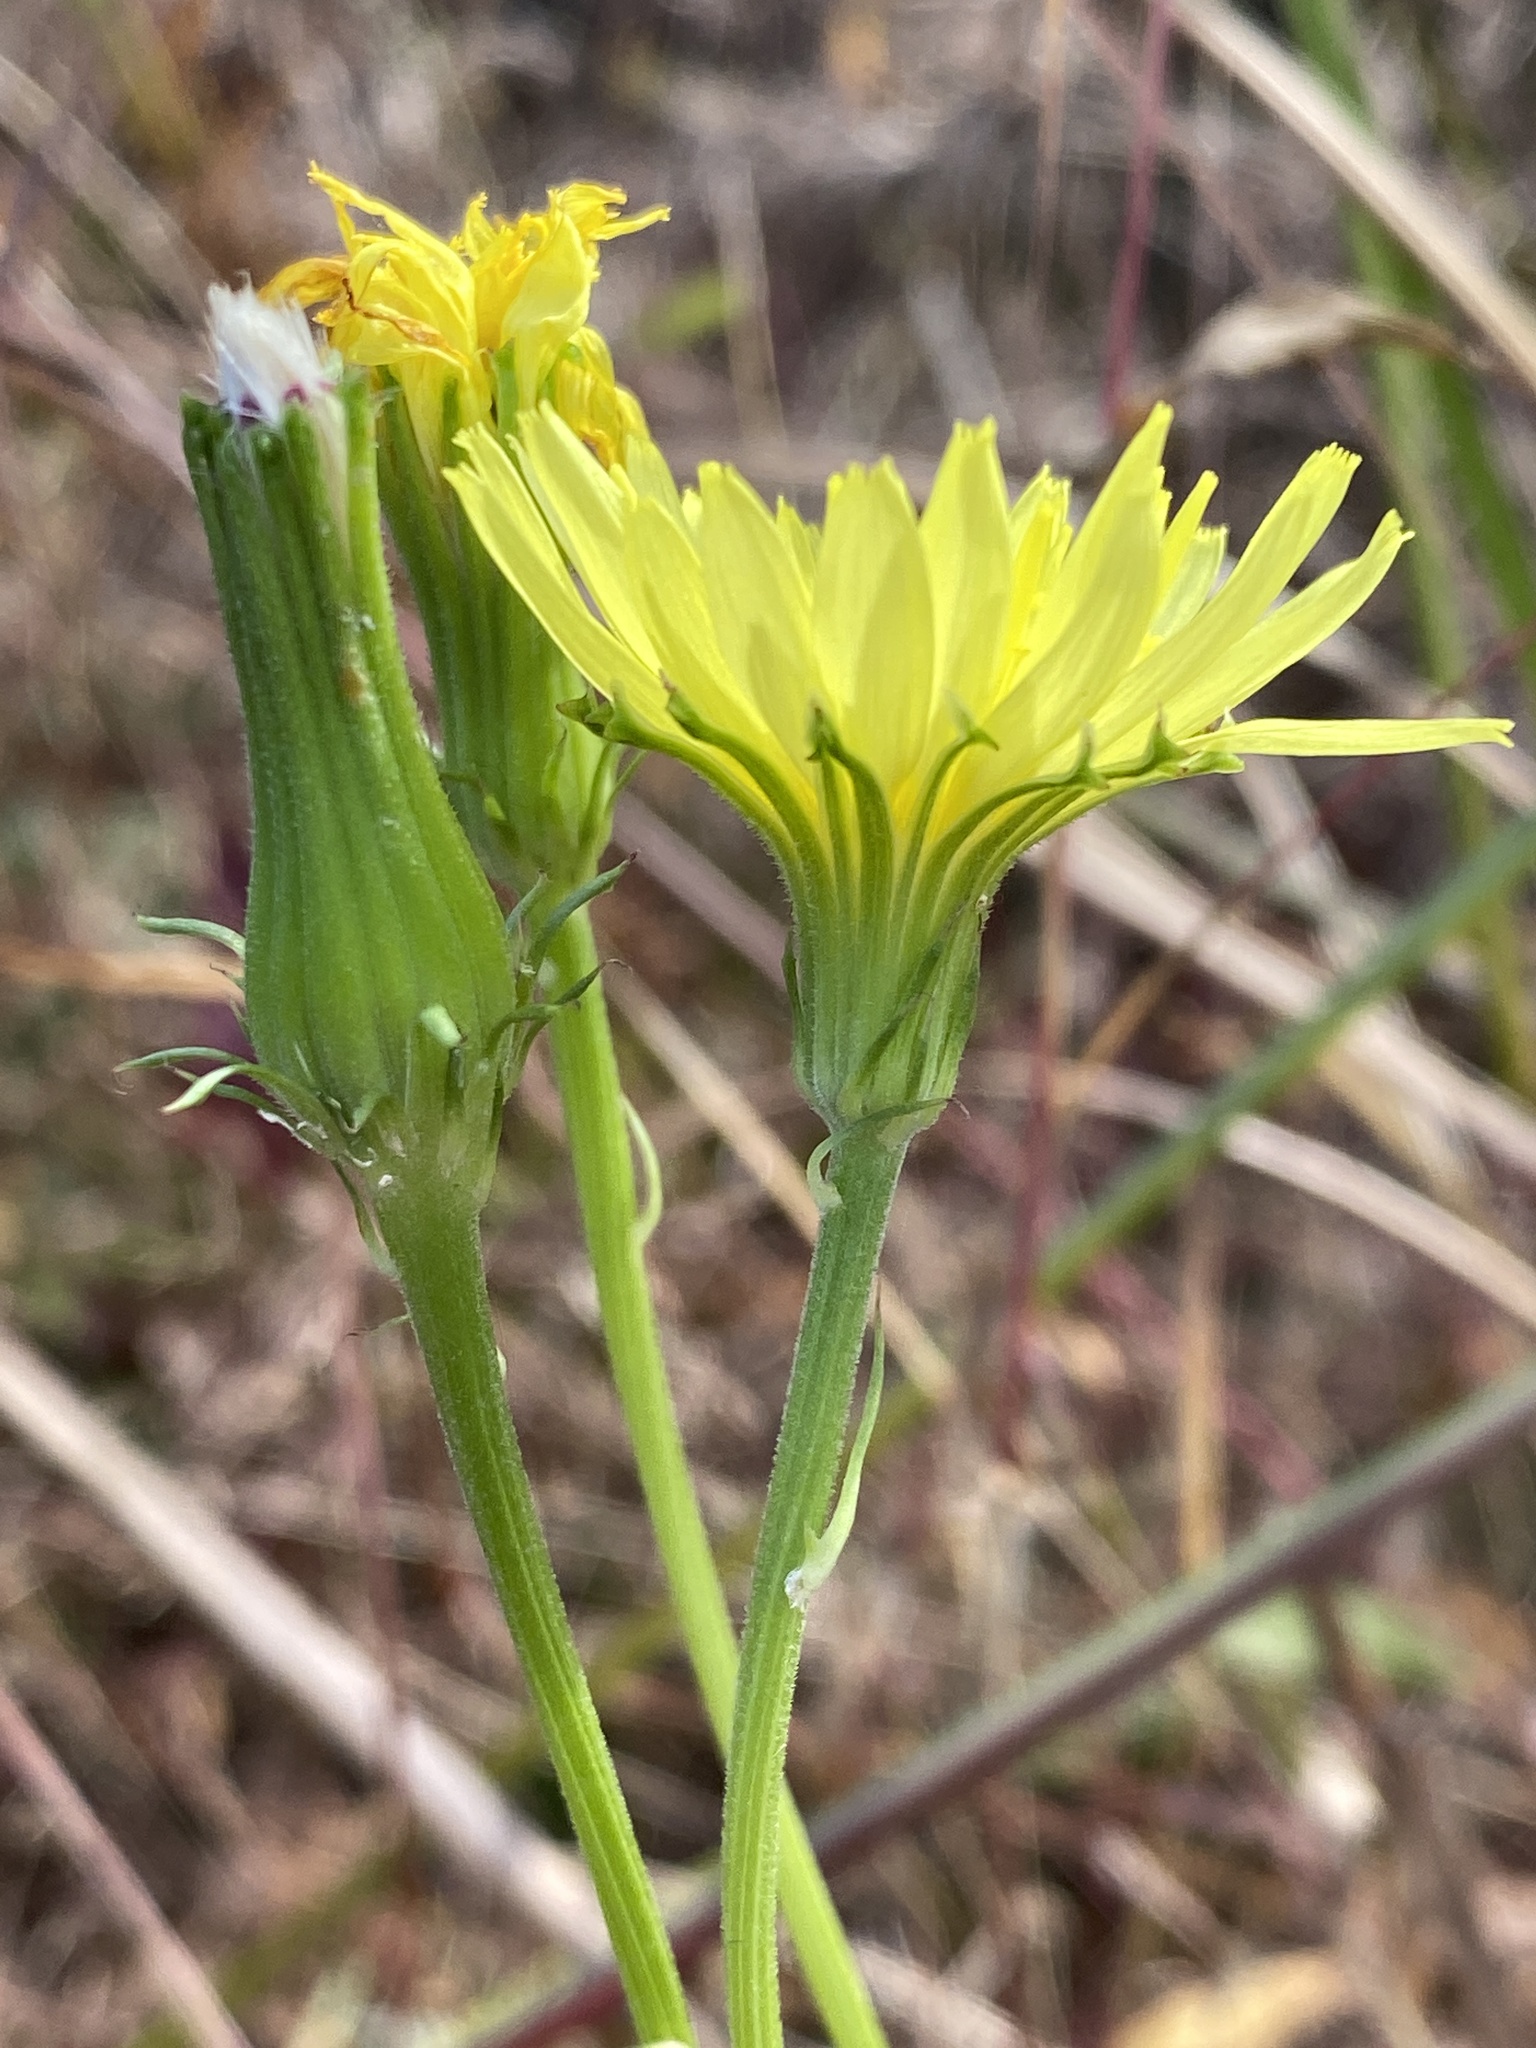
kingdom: Plantae
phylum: Tracheophyta
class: Magnoliopsida
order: Asterales
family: Asteraceae
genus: Pyrrhopappus
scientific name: Pyrrhopappus carolinianus
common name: Carolina desert-chicory
